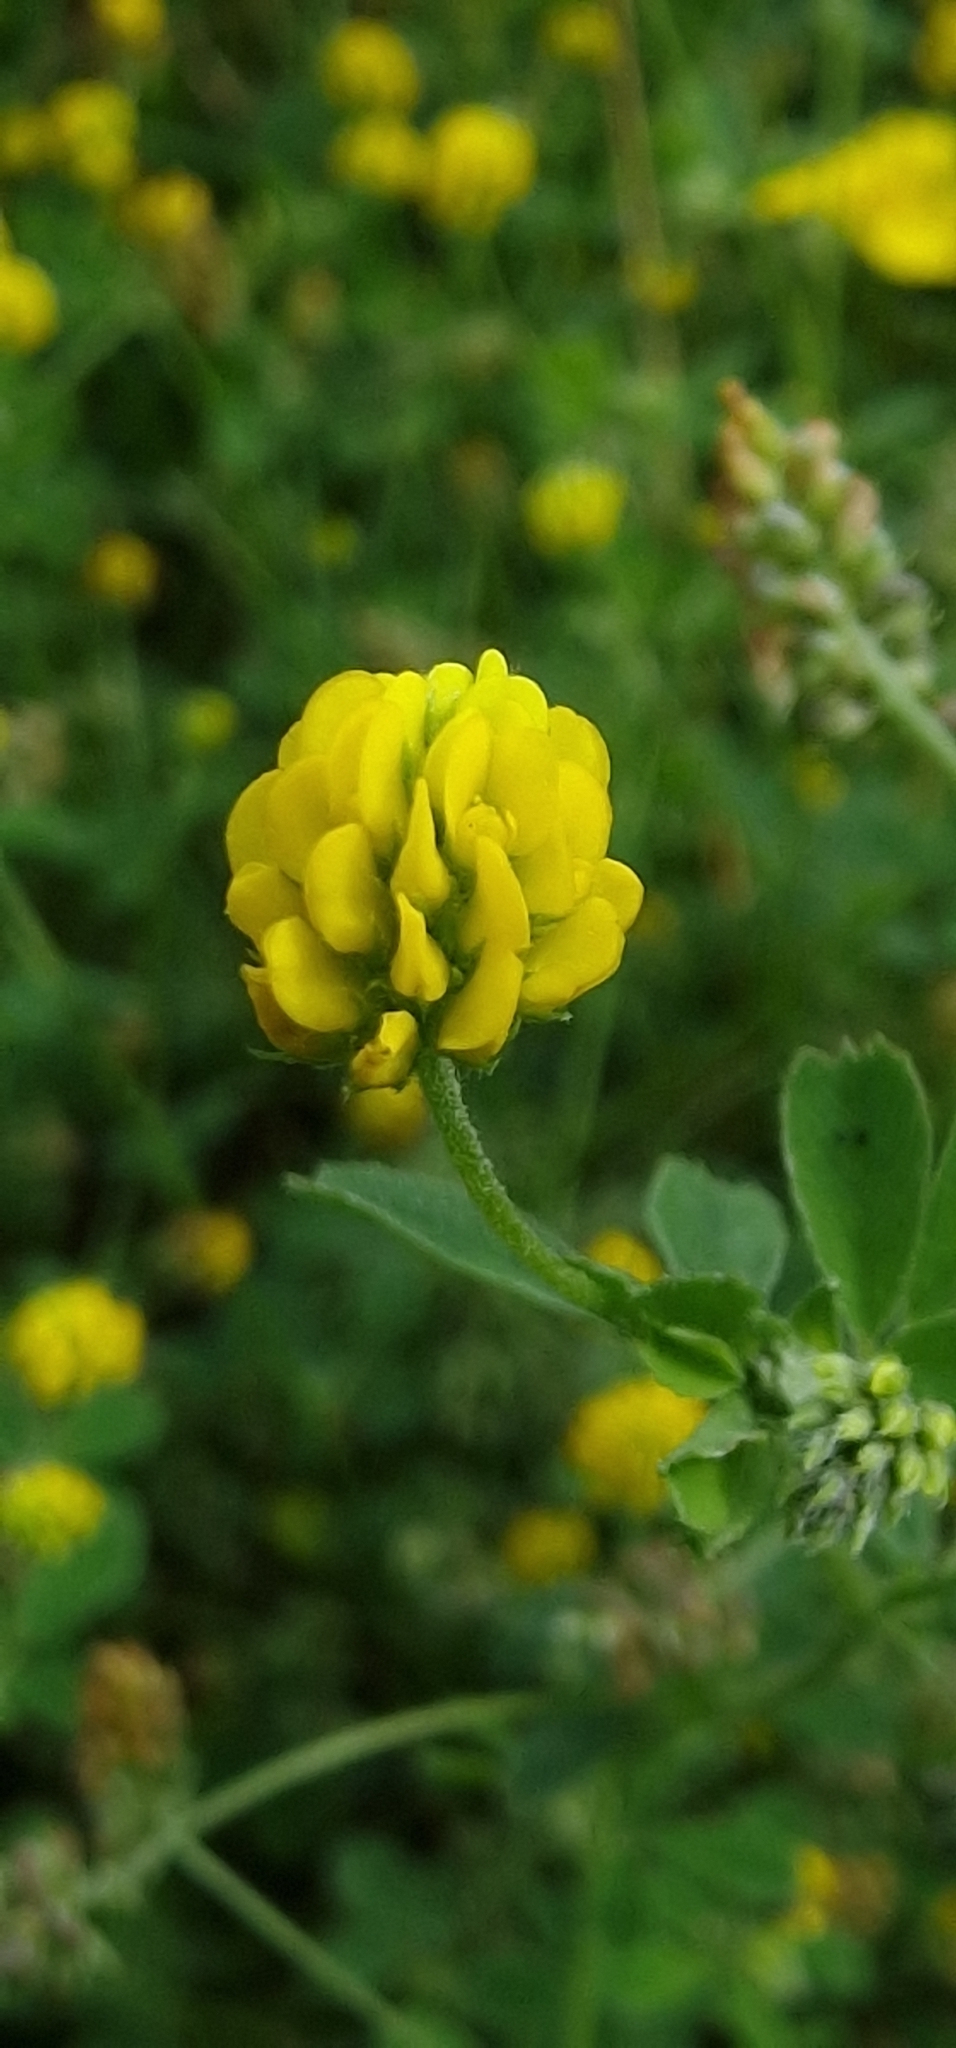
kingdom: Plantae
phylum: Tracheophyta
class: Magnoliopsida
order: Fabales
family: Fabaceae
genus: Medicago
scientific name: Medicago lupulina
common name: Black medick
